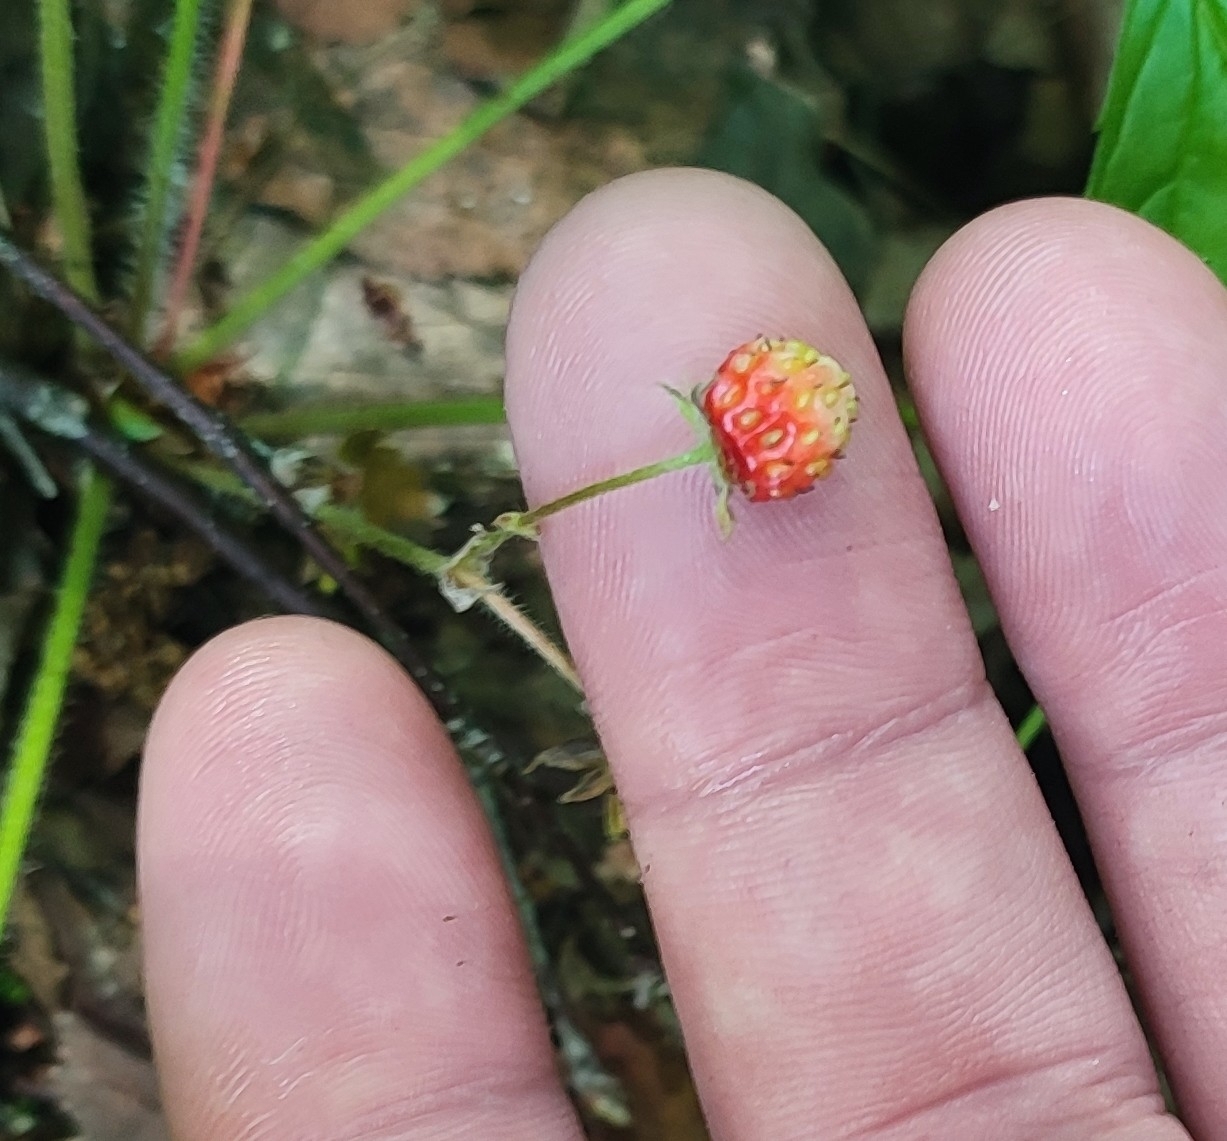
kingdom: Plantae
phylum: Tracheophyta
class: Magnoliopsida
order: Rosales
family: Rosaceae
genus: Fragaria
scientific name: Fragaria vesca
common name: Wild strawberry
